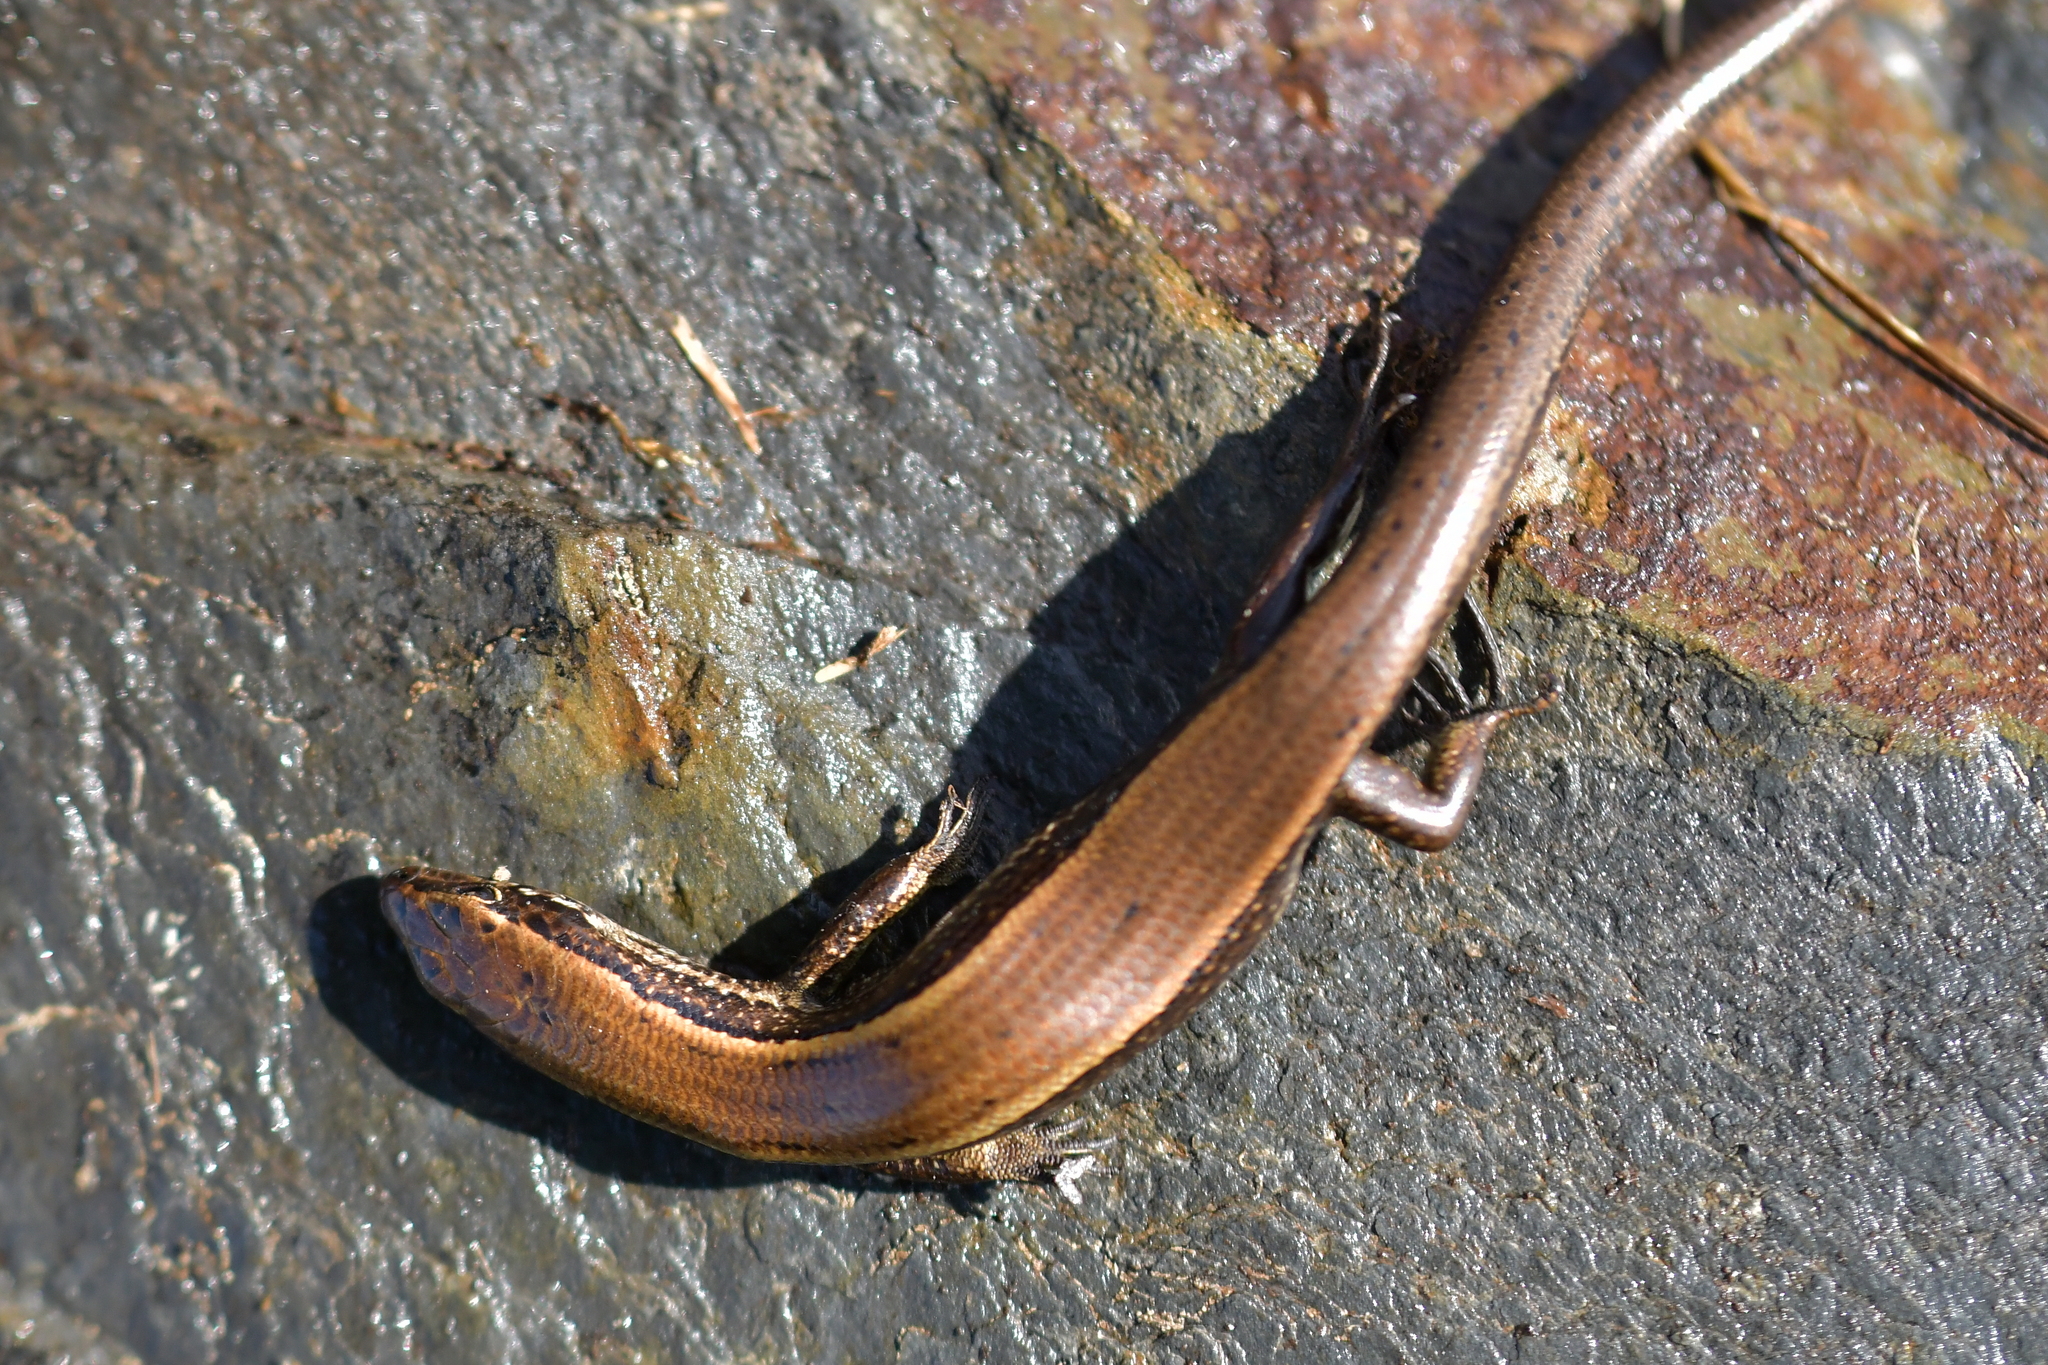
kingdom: Animalia
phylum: Chordata
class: Squamata
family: Scincidae
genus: Oligosoma
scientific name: Oligosoma newmani
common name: Newman’s speckled skink
